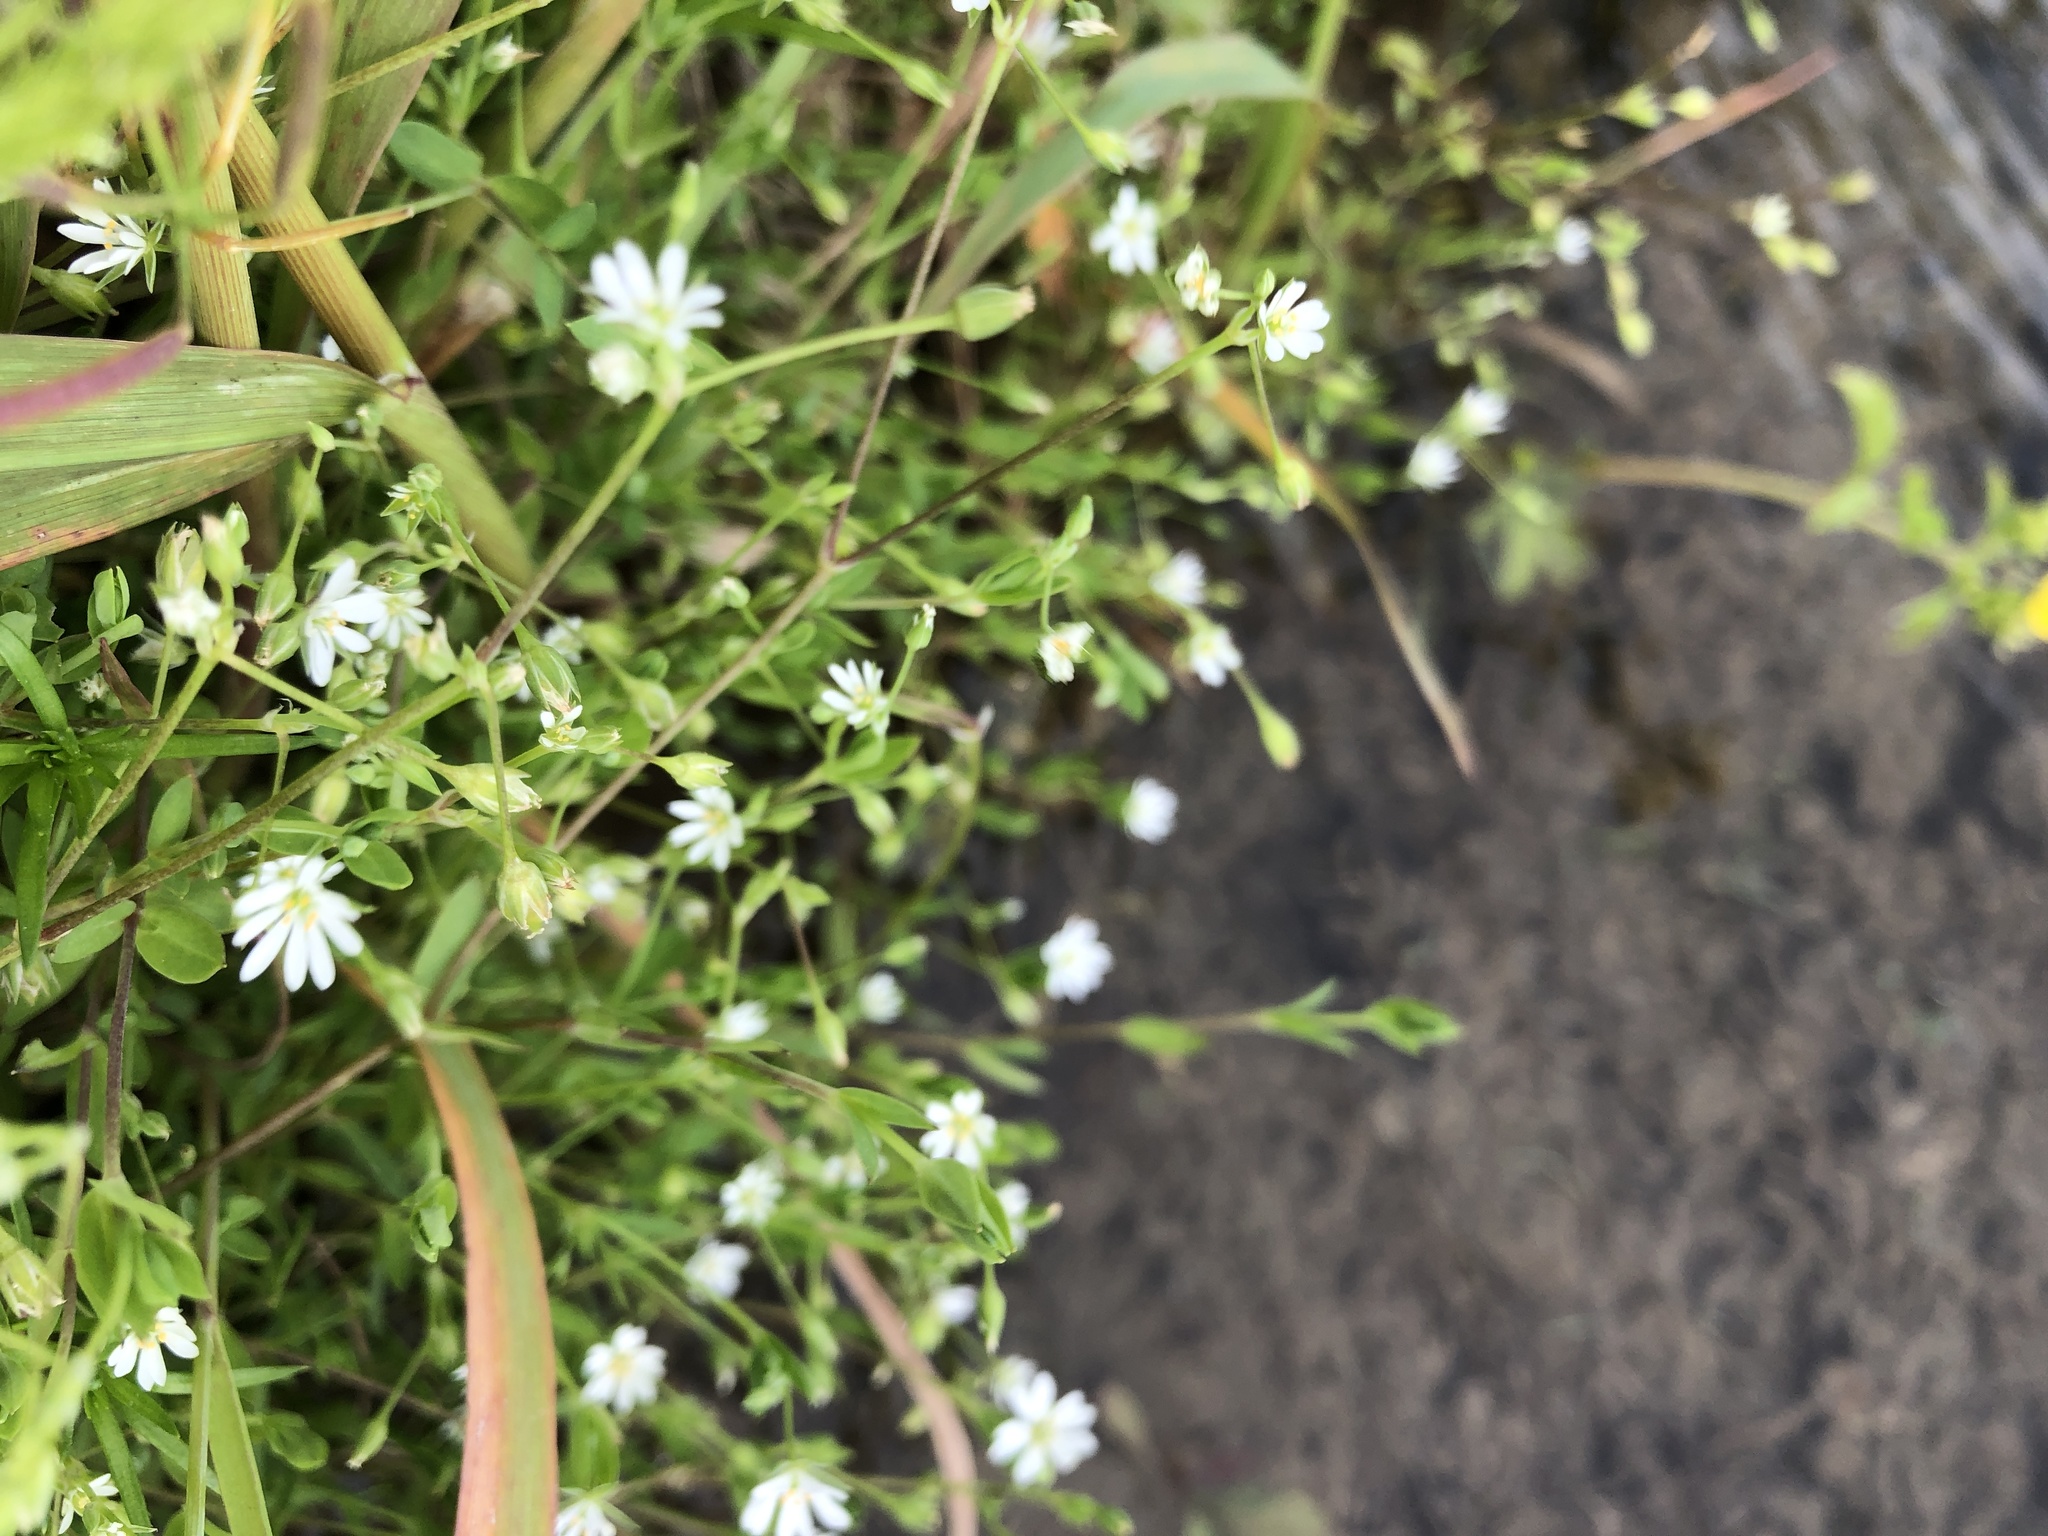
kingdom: Plantae
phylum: Tracheophyta
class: Magnoliopsida
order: Caryophyllales
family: Caryophyllaceae
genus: Stellaria
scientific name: Stellaria alsine
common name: Bog stitchwort
